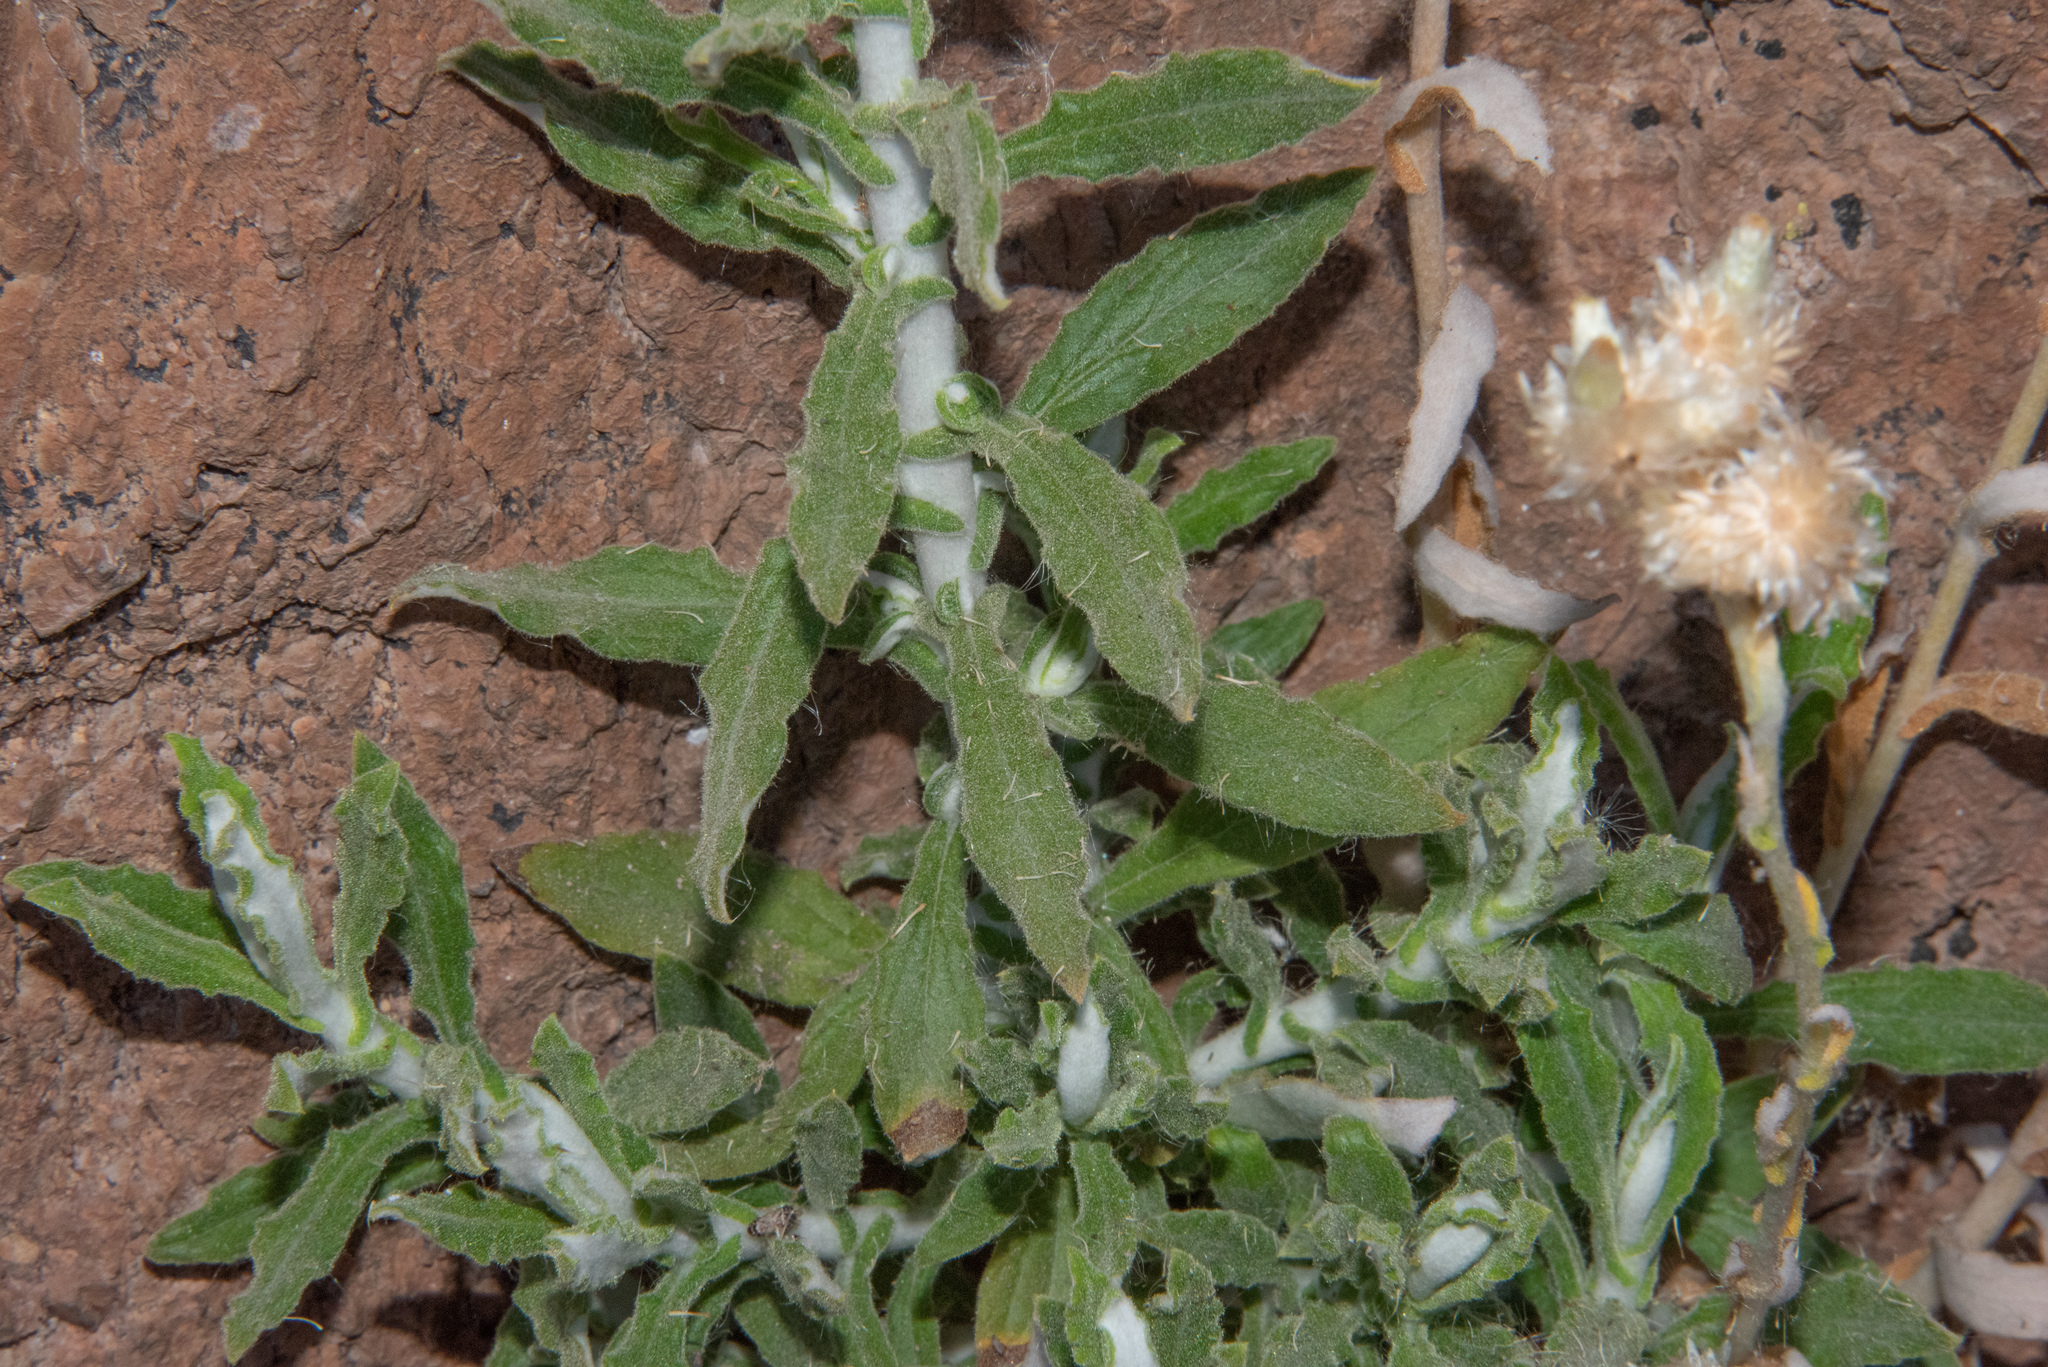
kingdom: Plantae
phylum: Tracheophyta
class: Magnoliopsida
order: Asterales
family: Asteraceae
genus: Pseudognaphalium
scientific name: Pseudognaphalium biolettii
